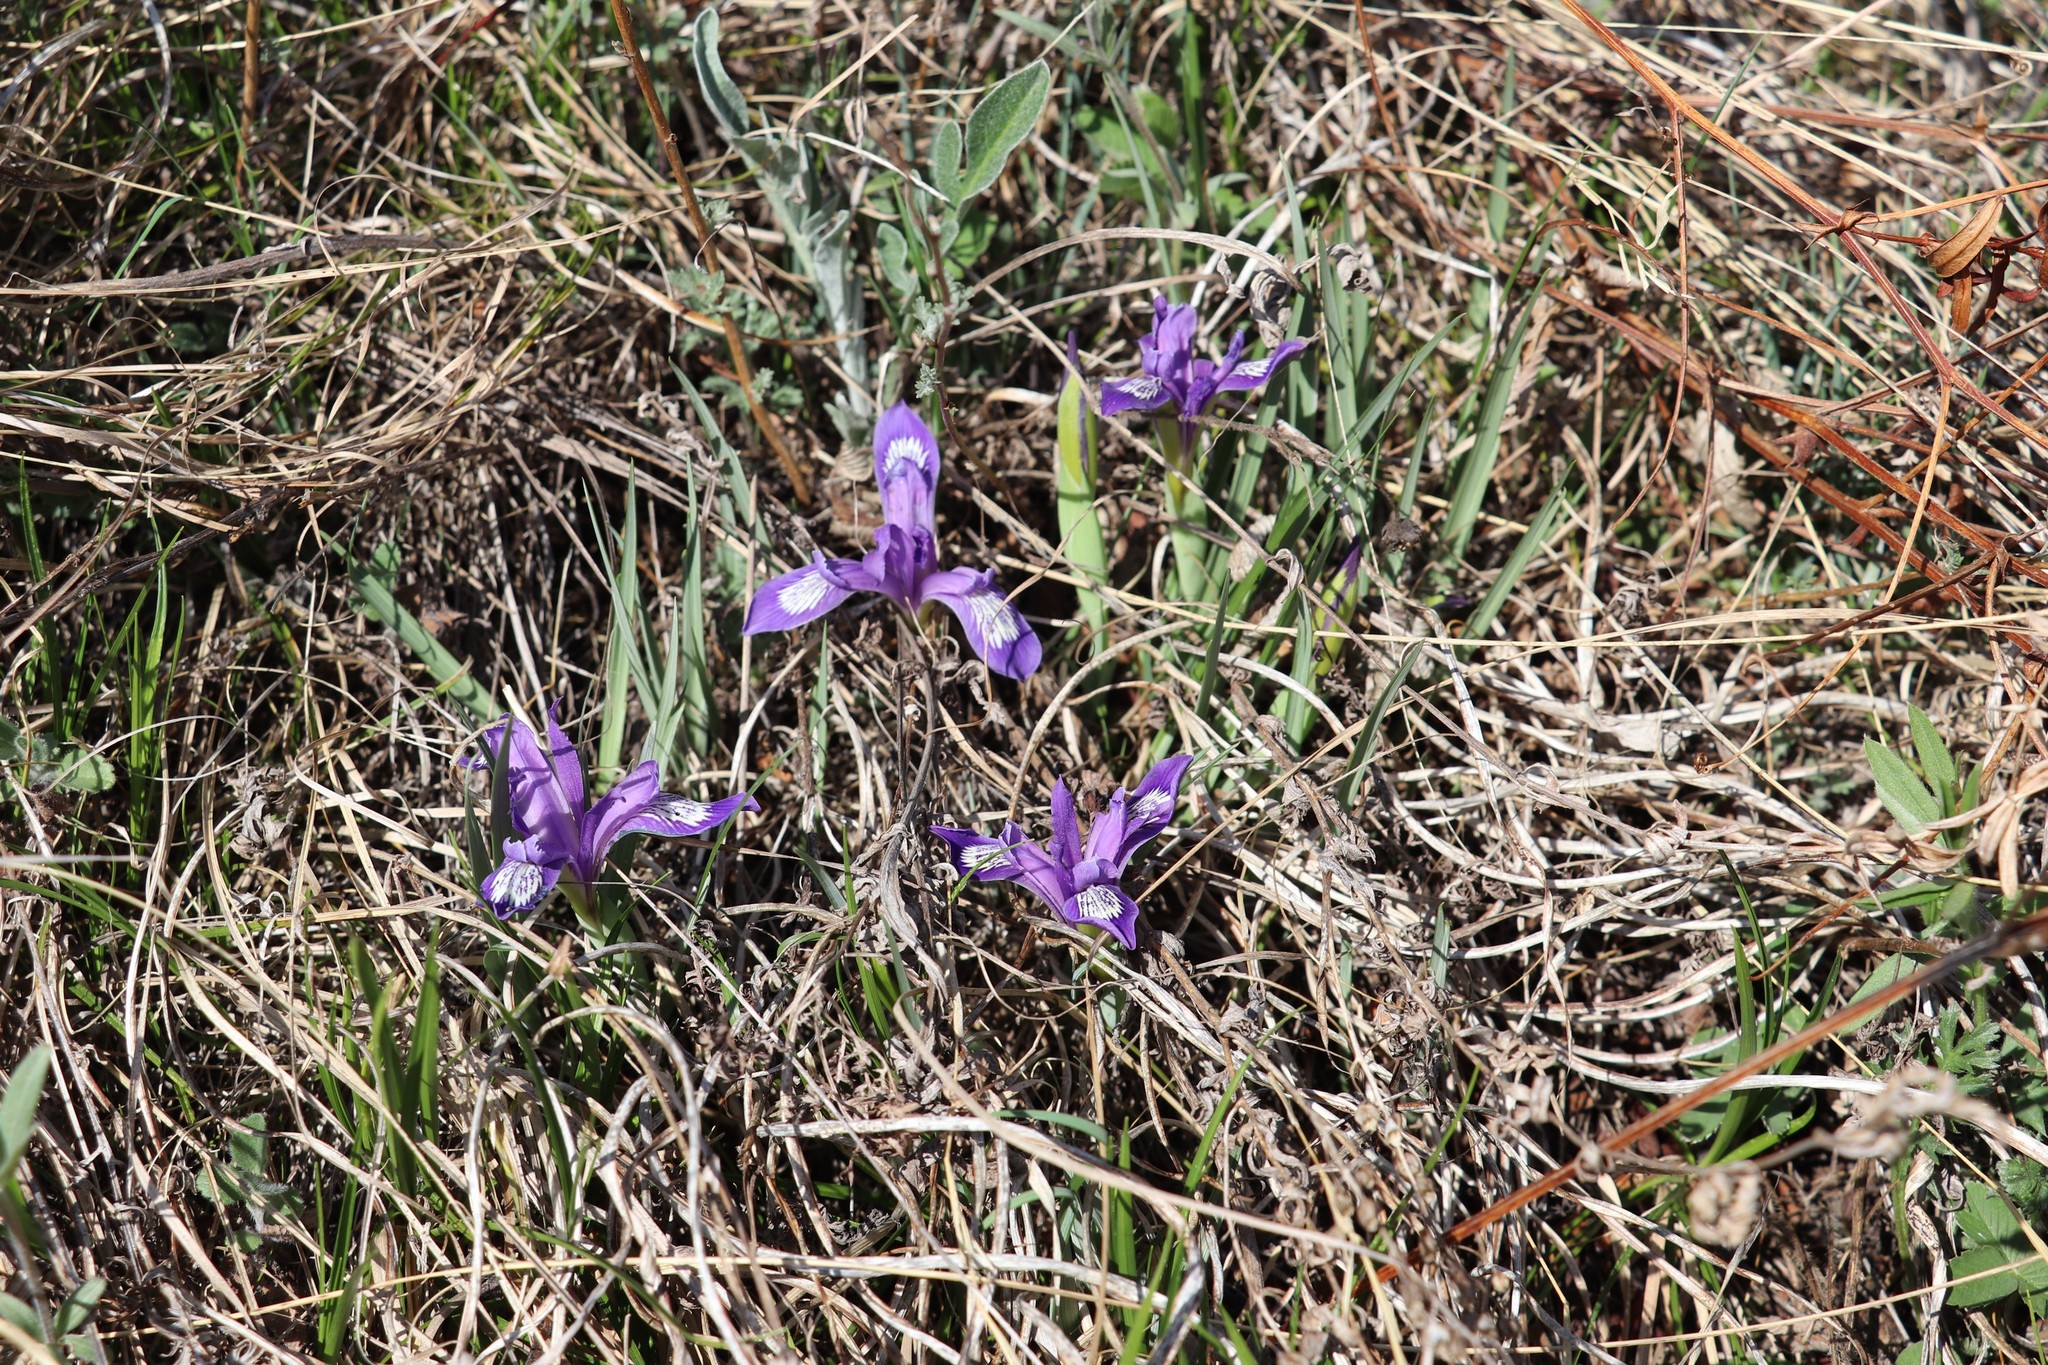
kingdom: Plantae
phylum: Tracheophyta
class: Liliopsida
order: Asparagales
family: Iridaceae
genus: Iris
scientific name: Iris ruthenica
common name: Purple-bract iris
